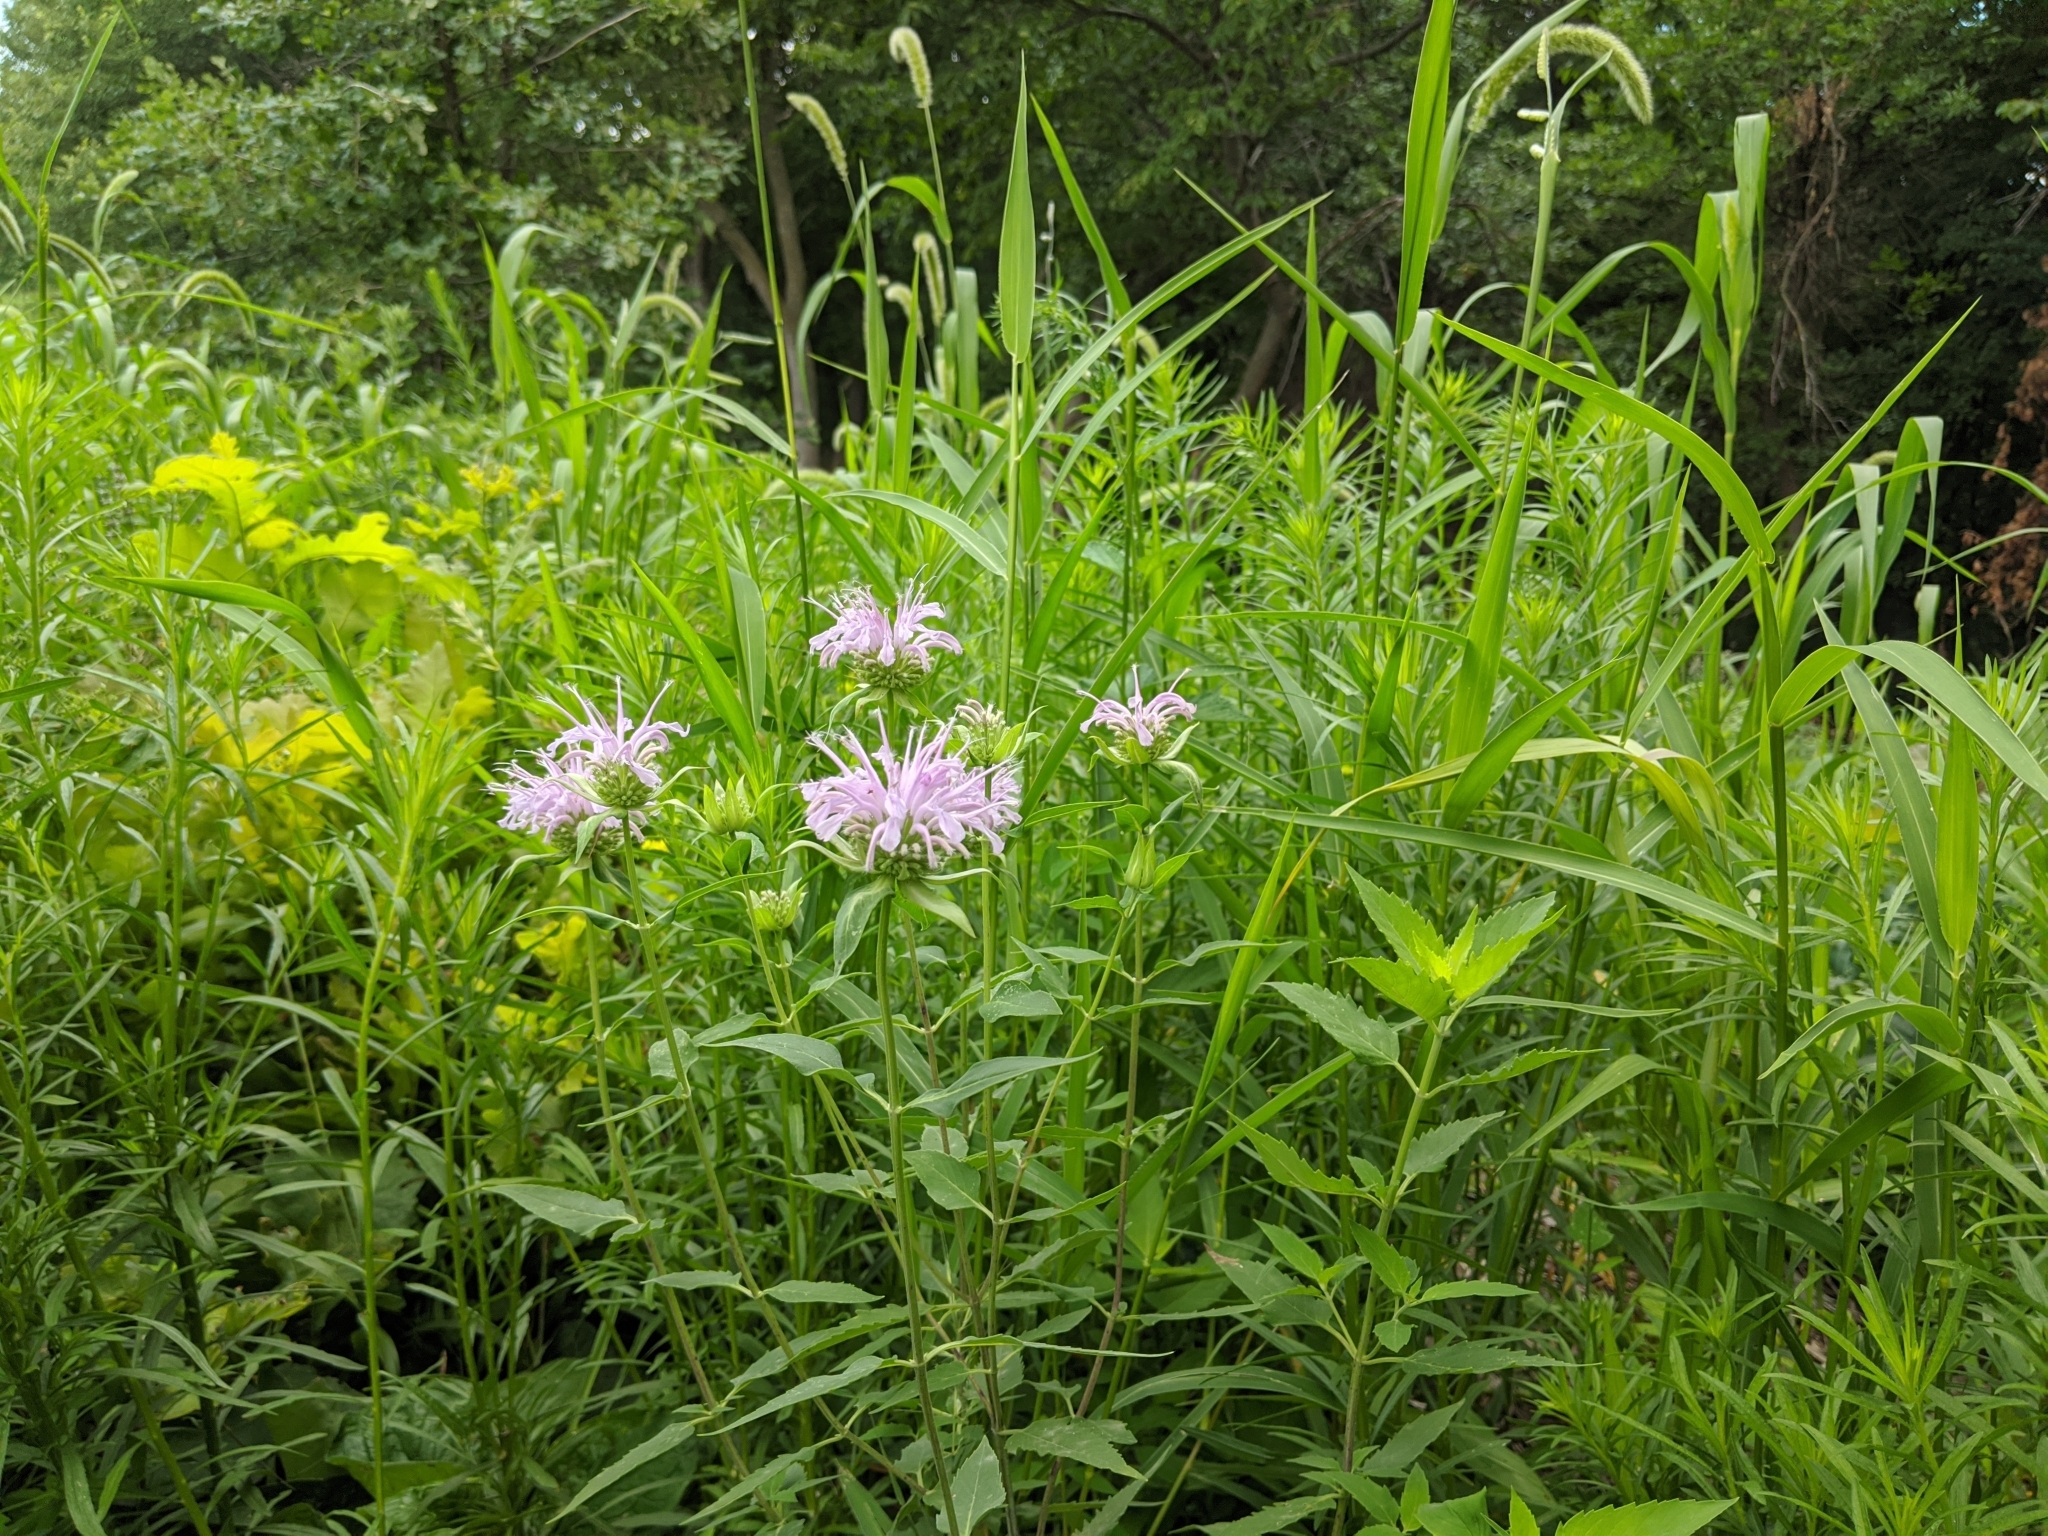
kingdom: Plantae
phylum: Tracheophyta
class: Magnoliopsida
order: Lamiales
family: Lamiaceae
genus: Monarda
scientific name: Monarda fistulosa
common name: Purple beebalm
